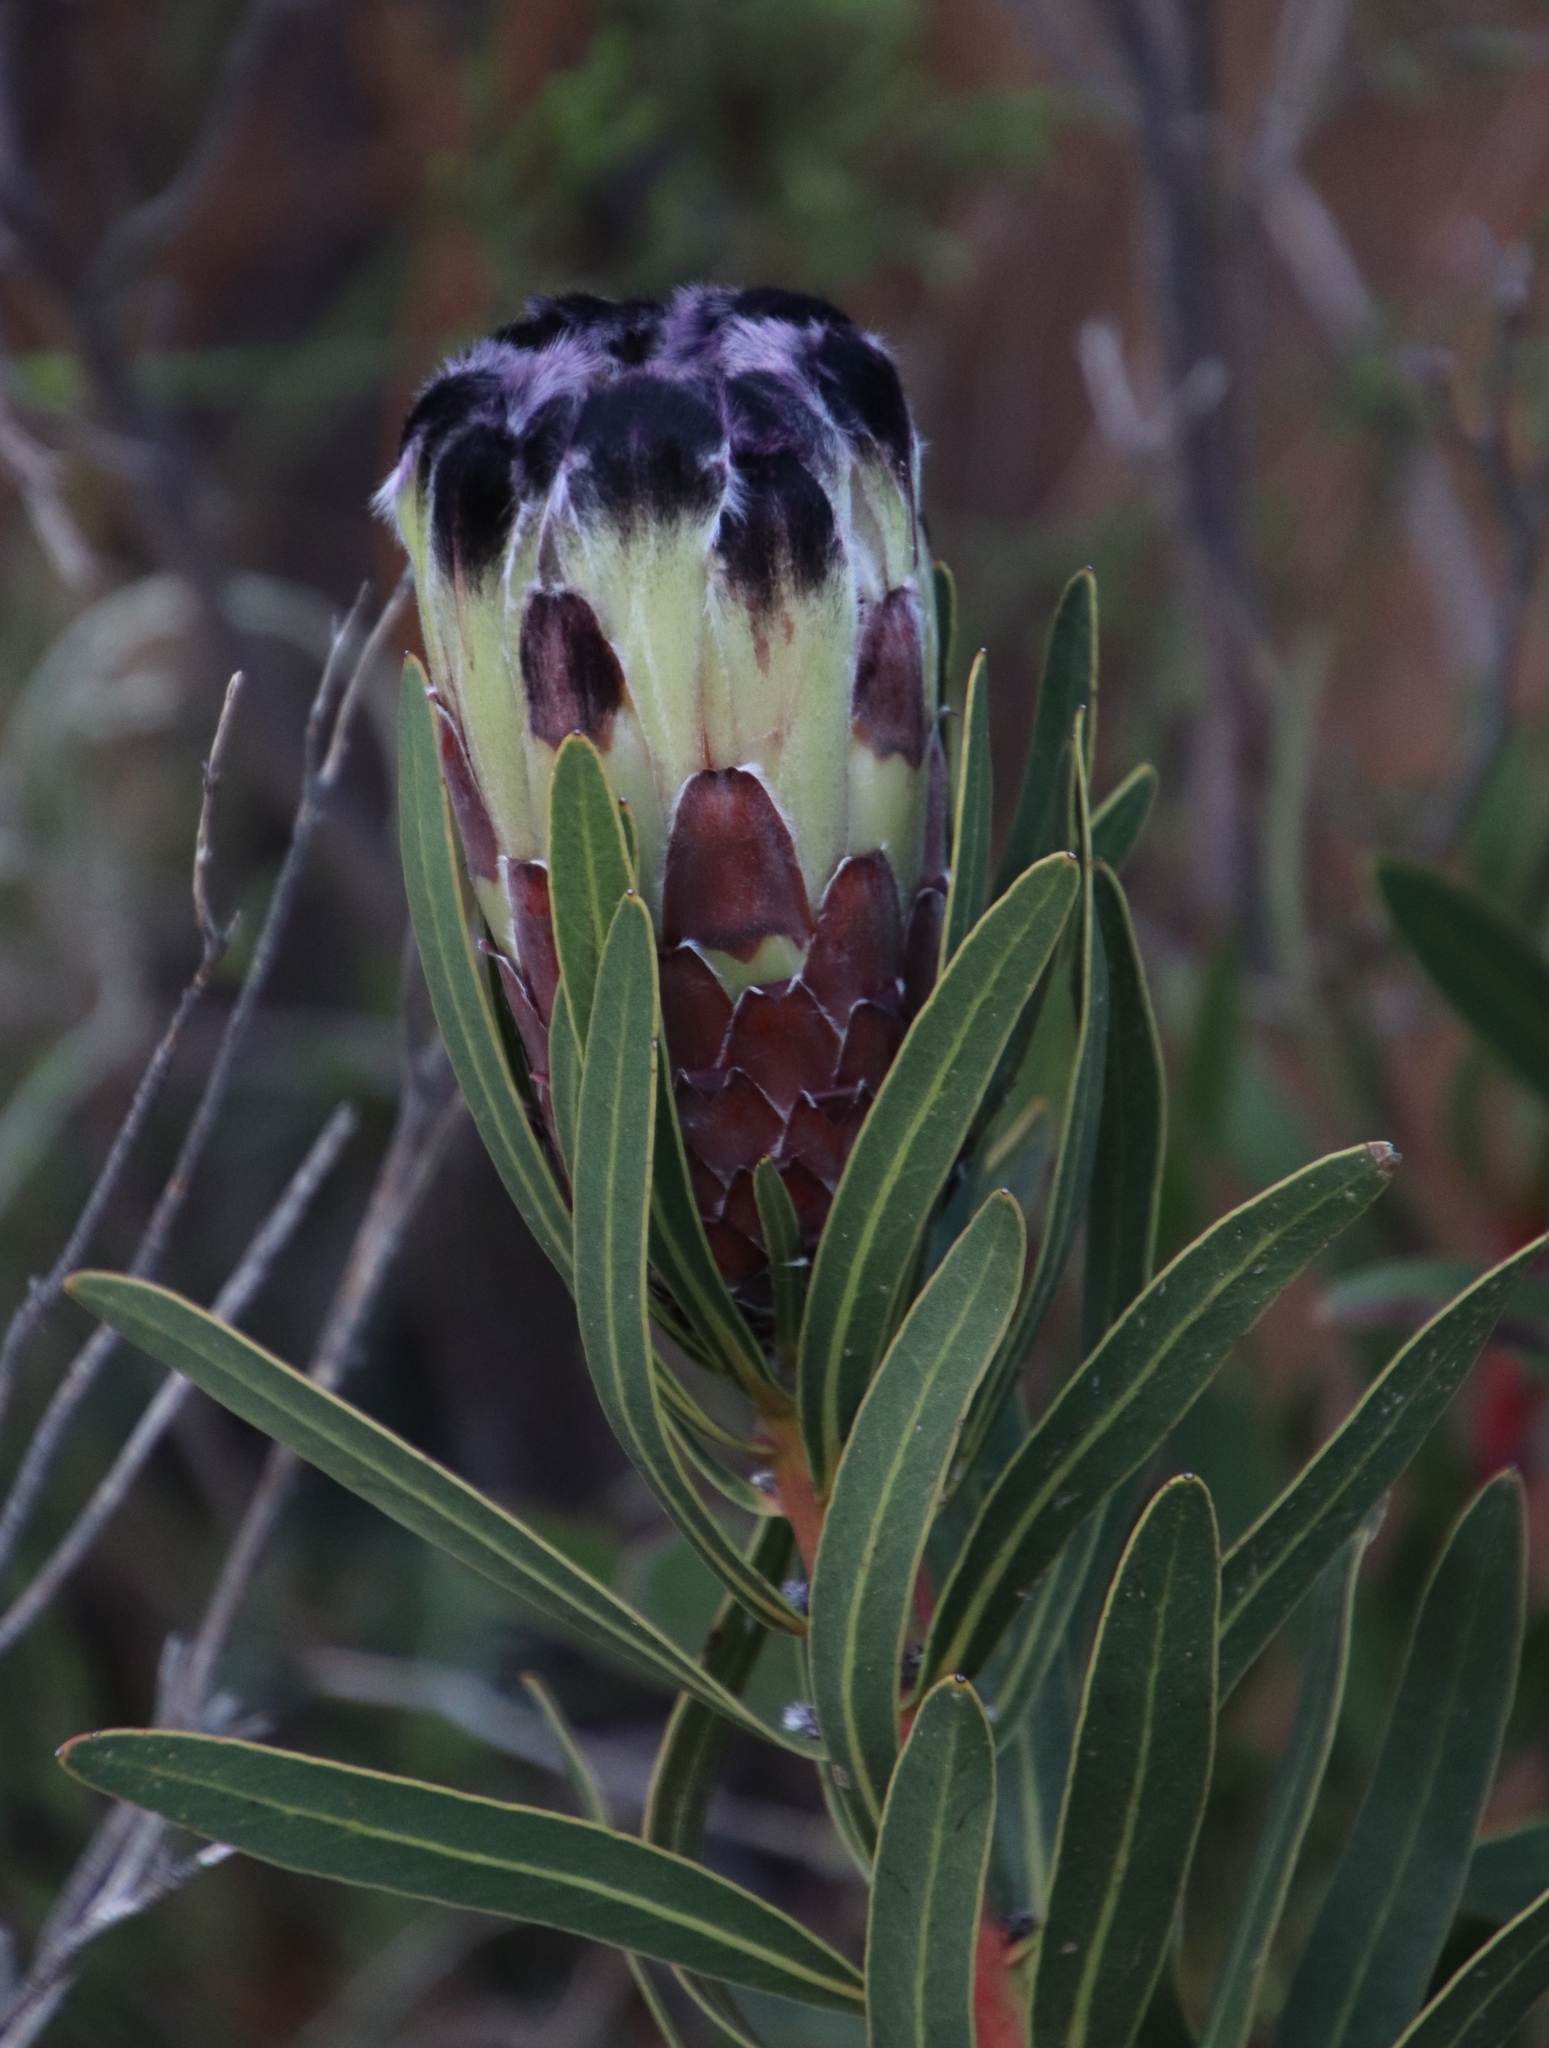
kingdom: Plantae
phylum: Tracheophyta
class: Magnoliopsida
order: Proteales
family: Proteaceae
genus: Protea
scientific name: Protea lepidocarpodendron
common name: Black-bearded protea
